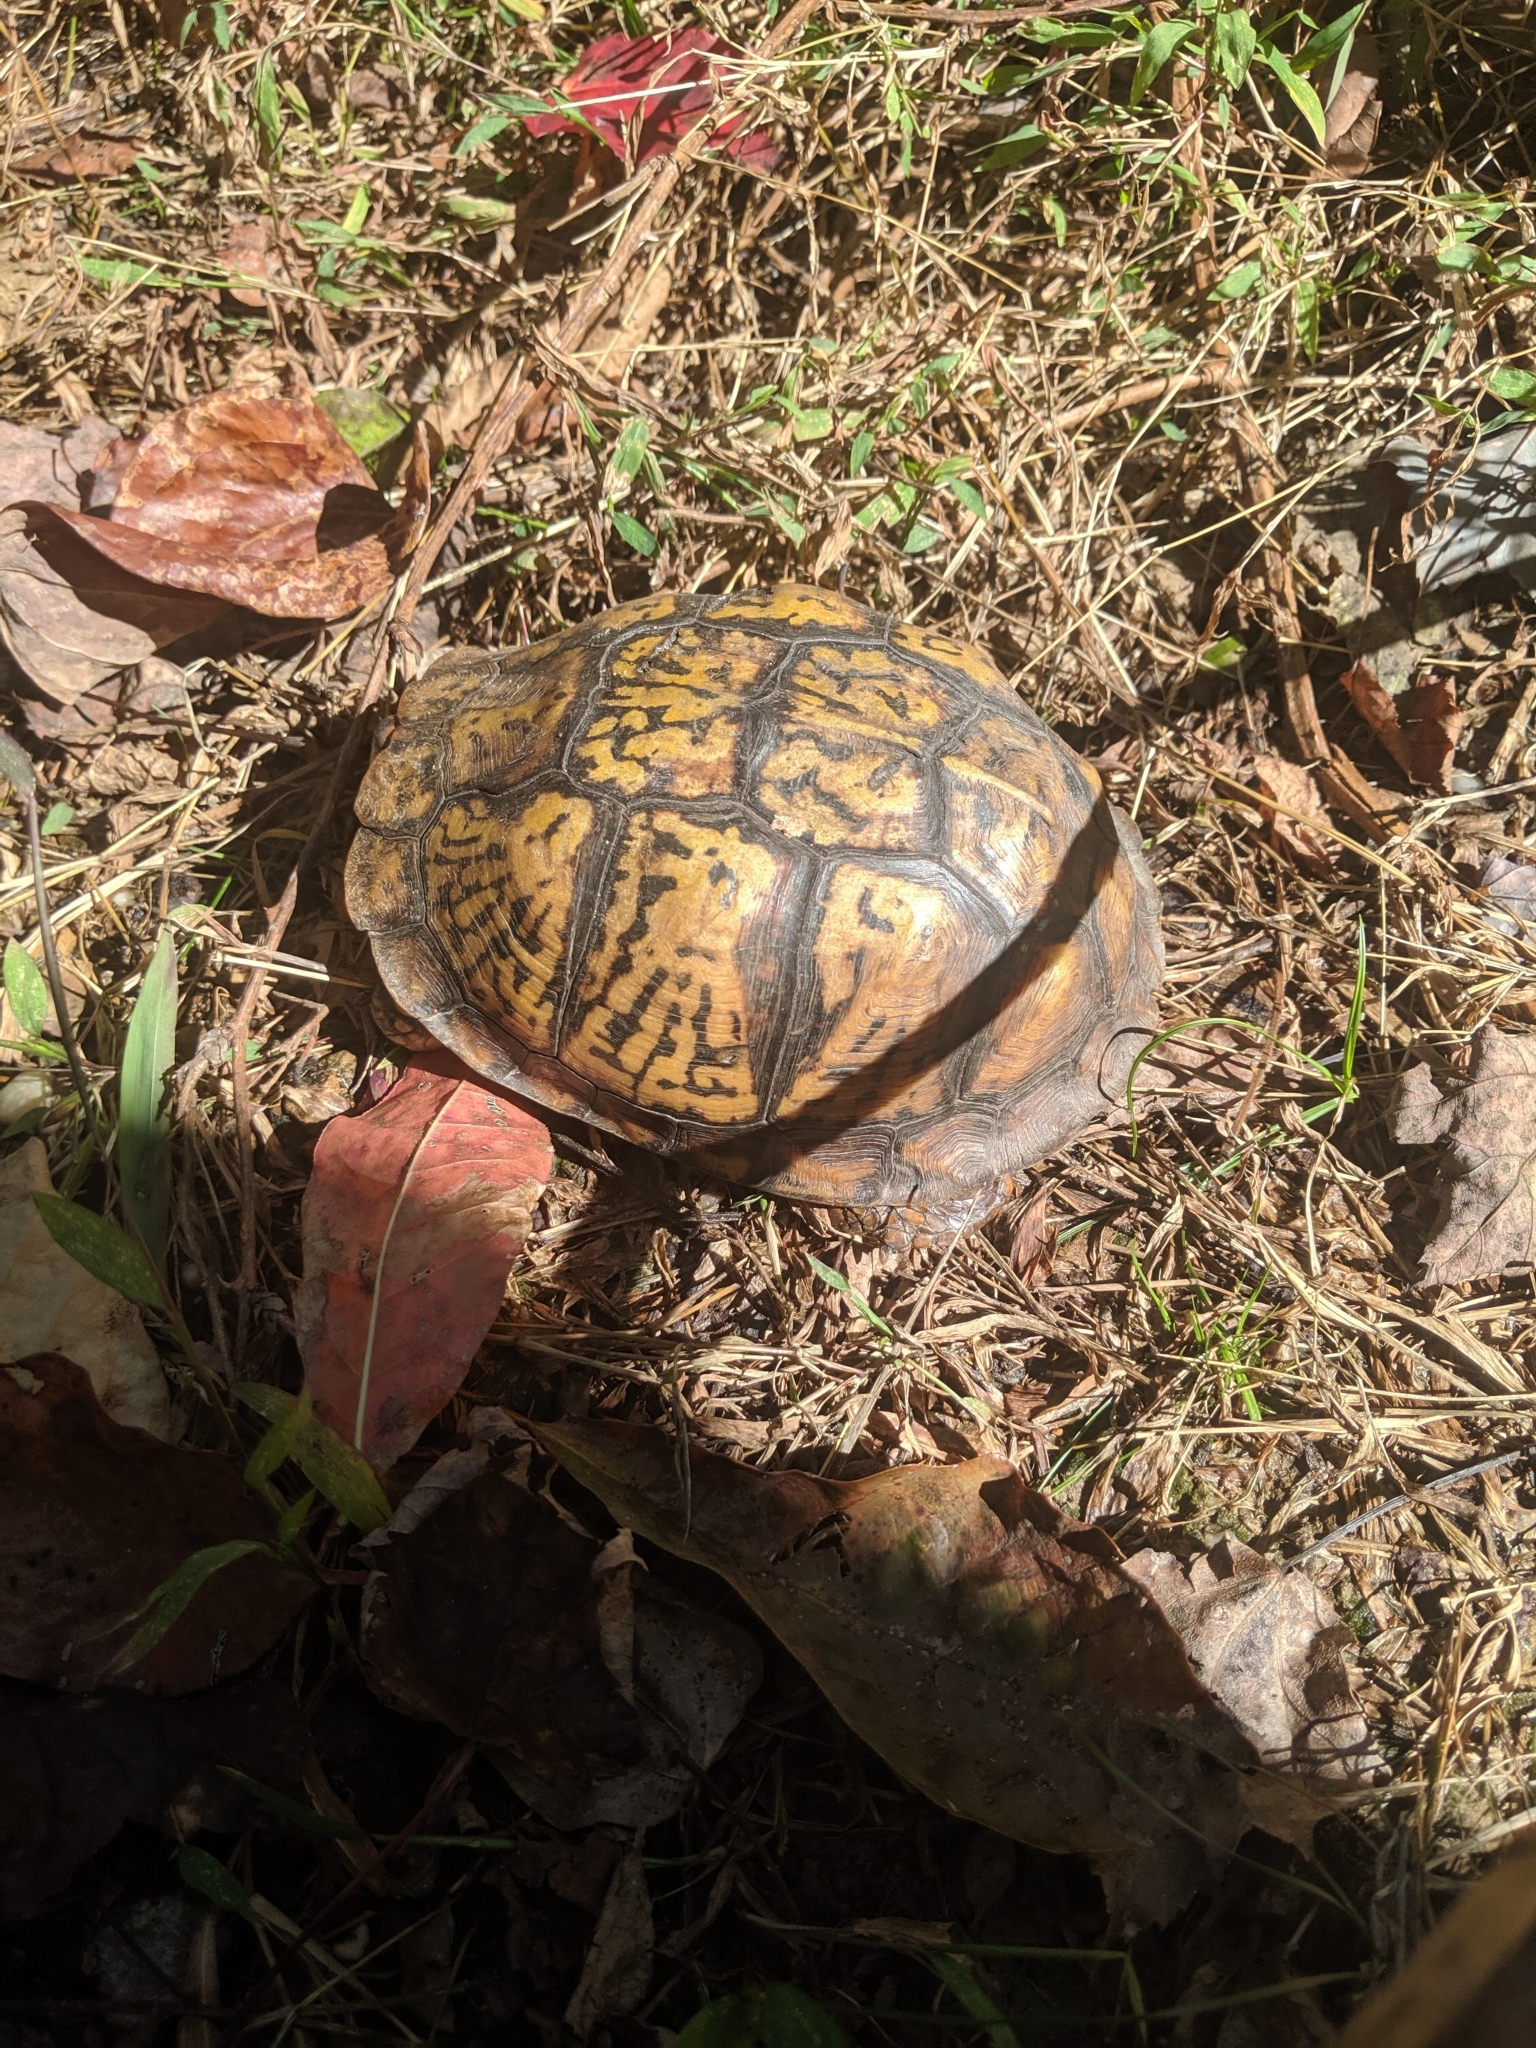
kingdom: Animalia
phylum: Chordata
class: Testudines
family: Emydidae
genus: Terrapene
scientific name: Terrapene carolina
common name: Common box turtle
